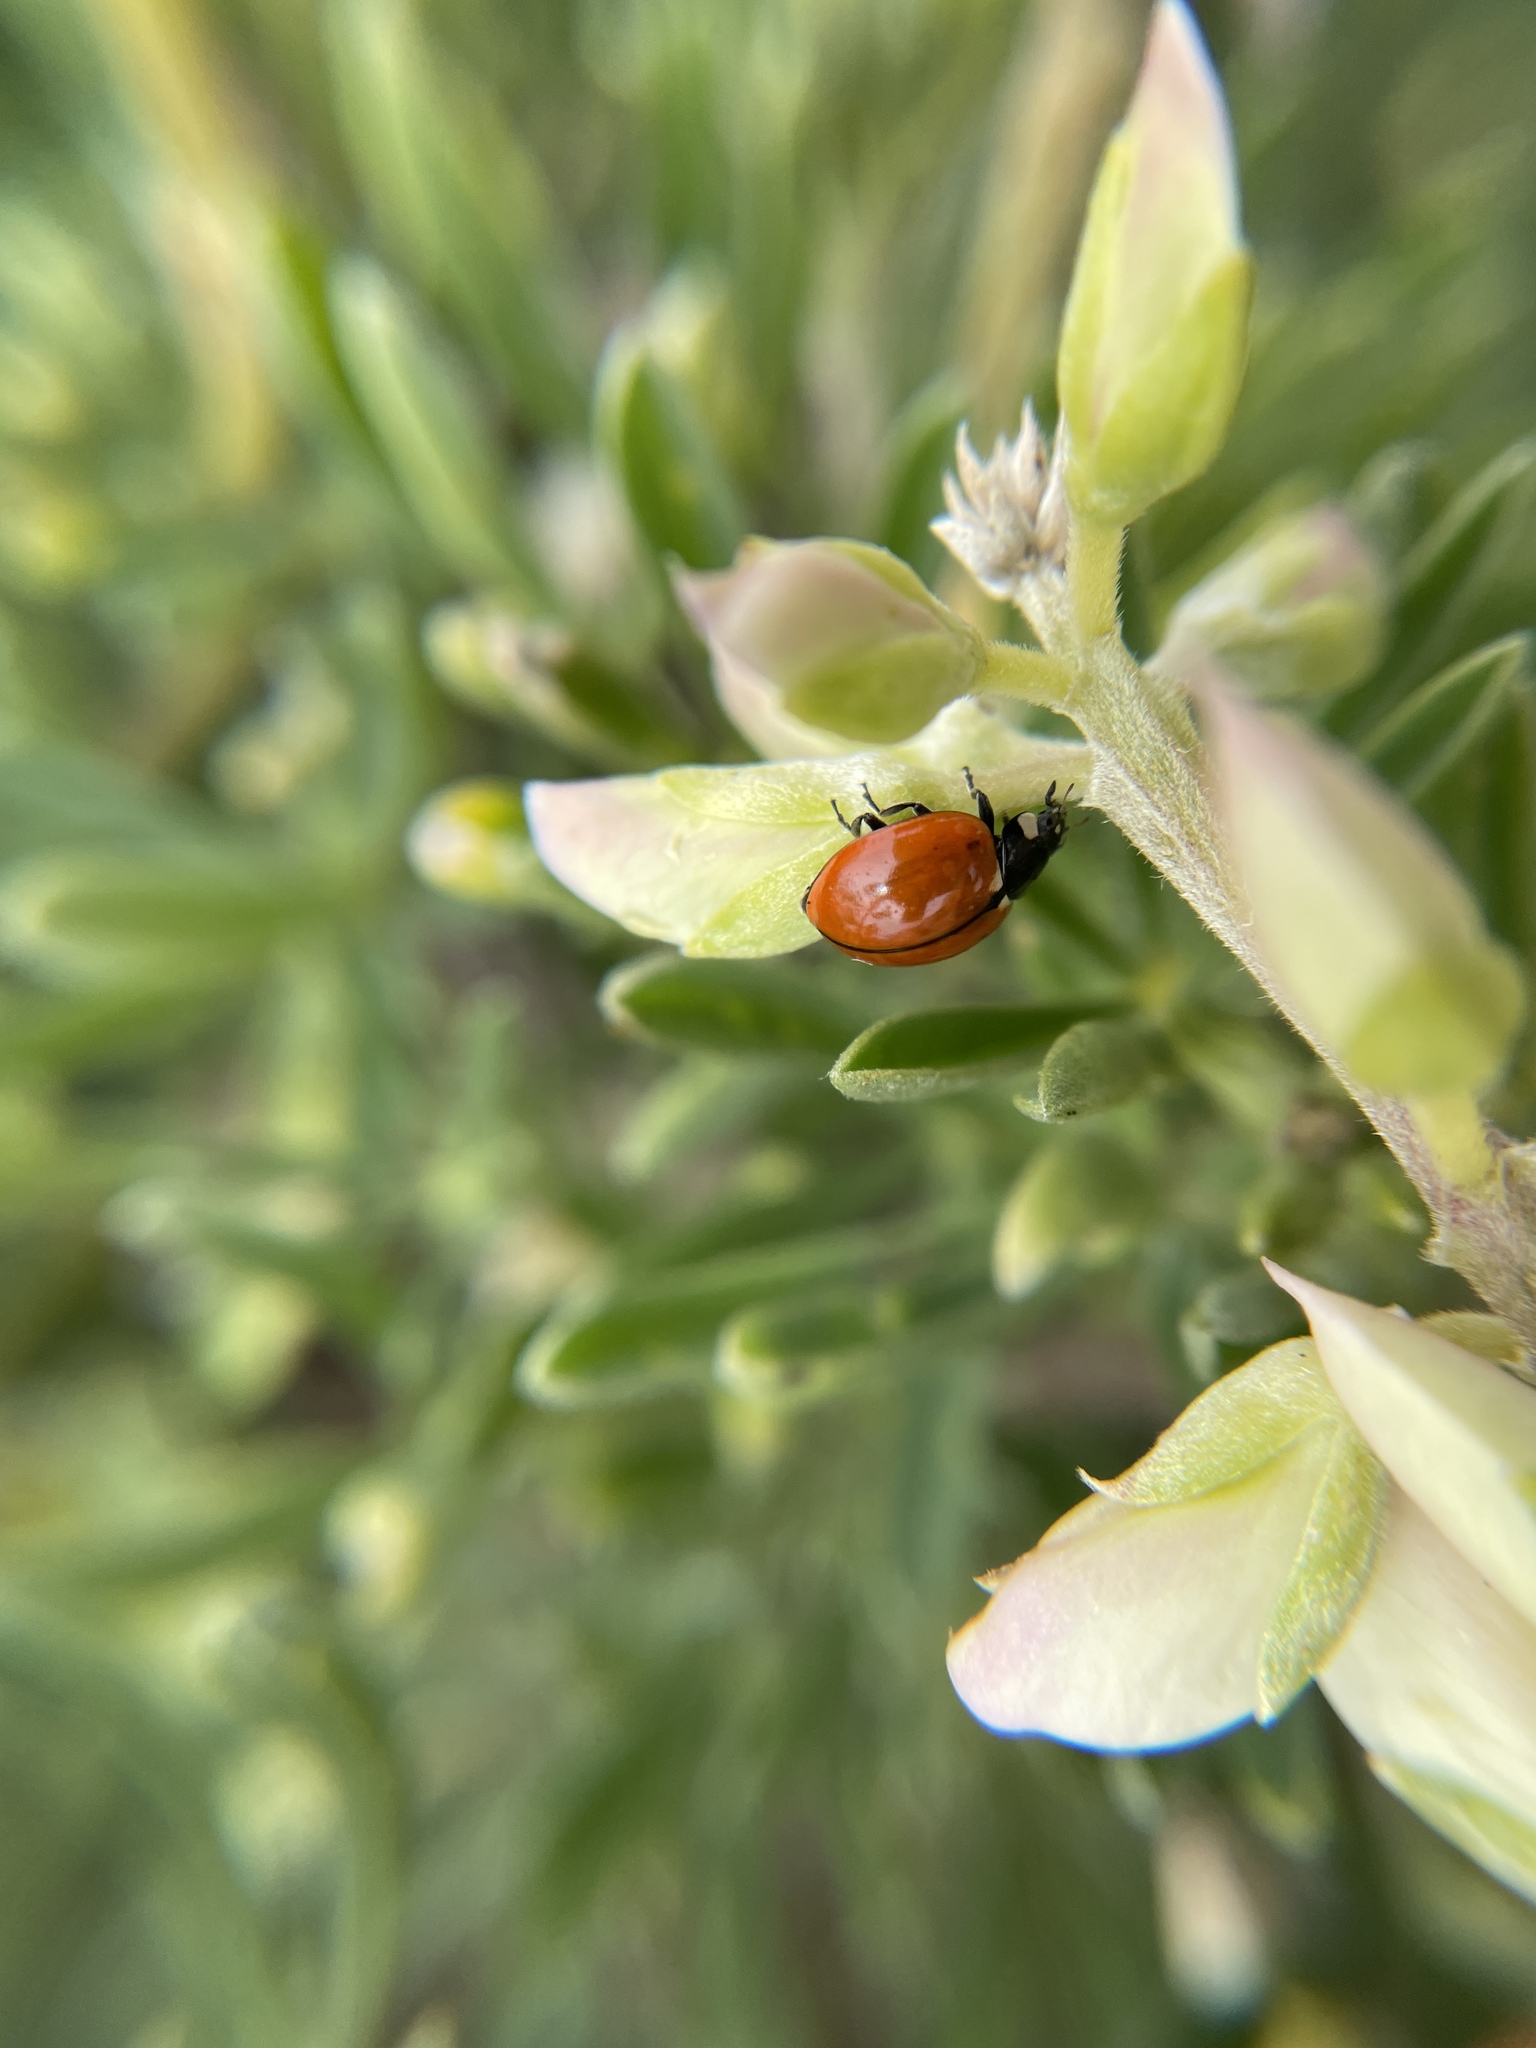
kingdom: Animalia
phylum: Arthropoda
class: Insecta
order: Coleoptera
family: Coccinellidae
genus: Coccinella
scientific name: Coccinella californica
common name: Lady beetle
